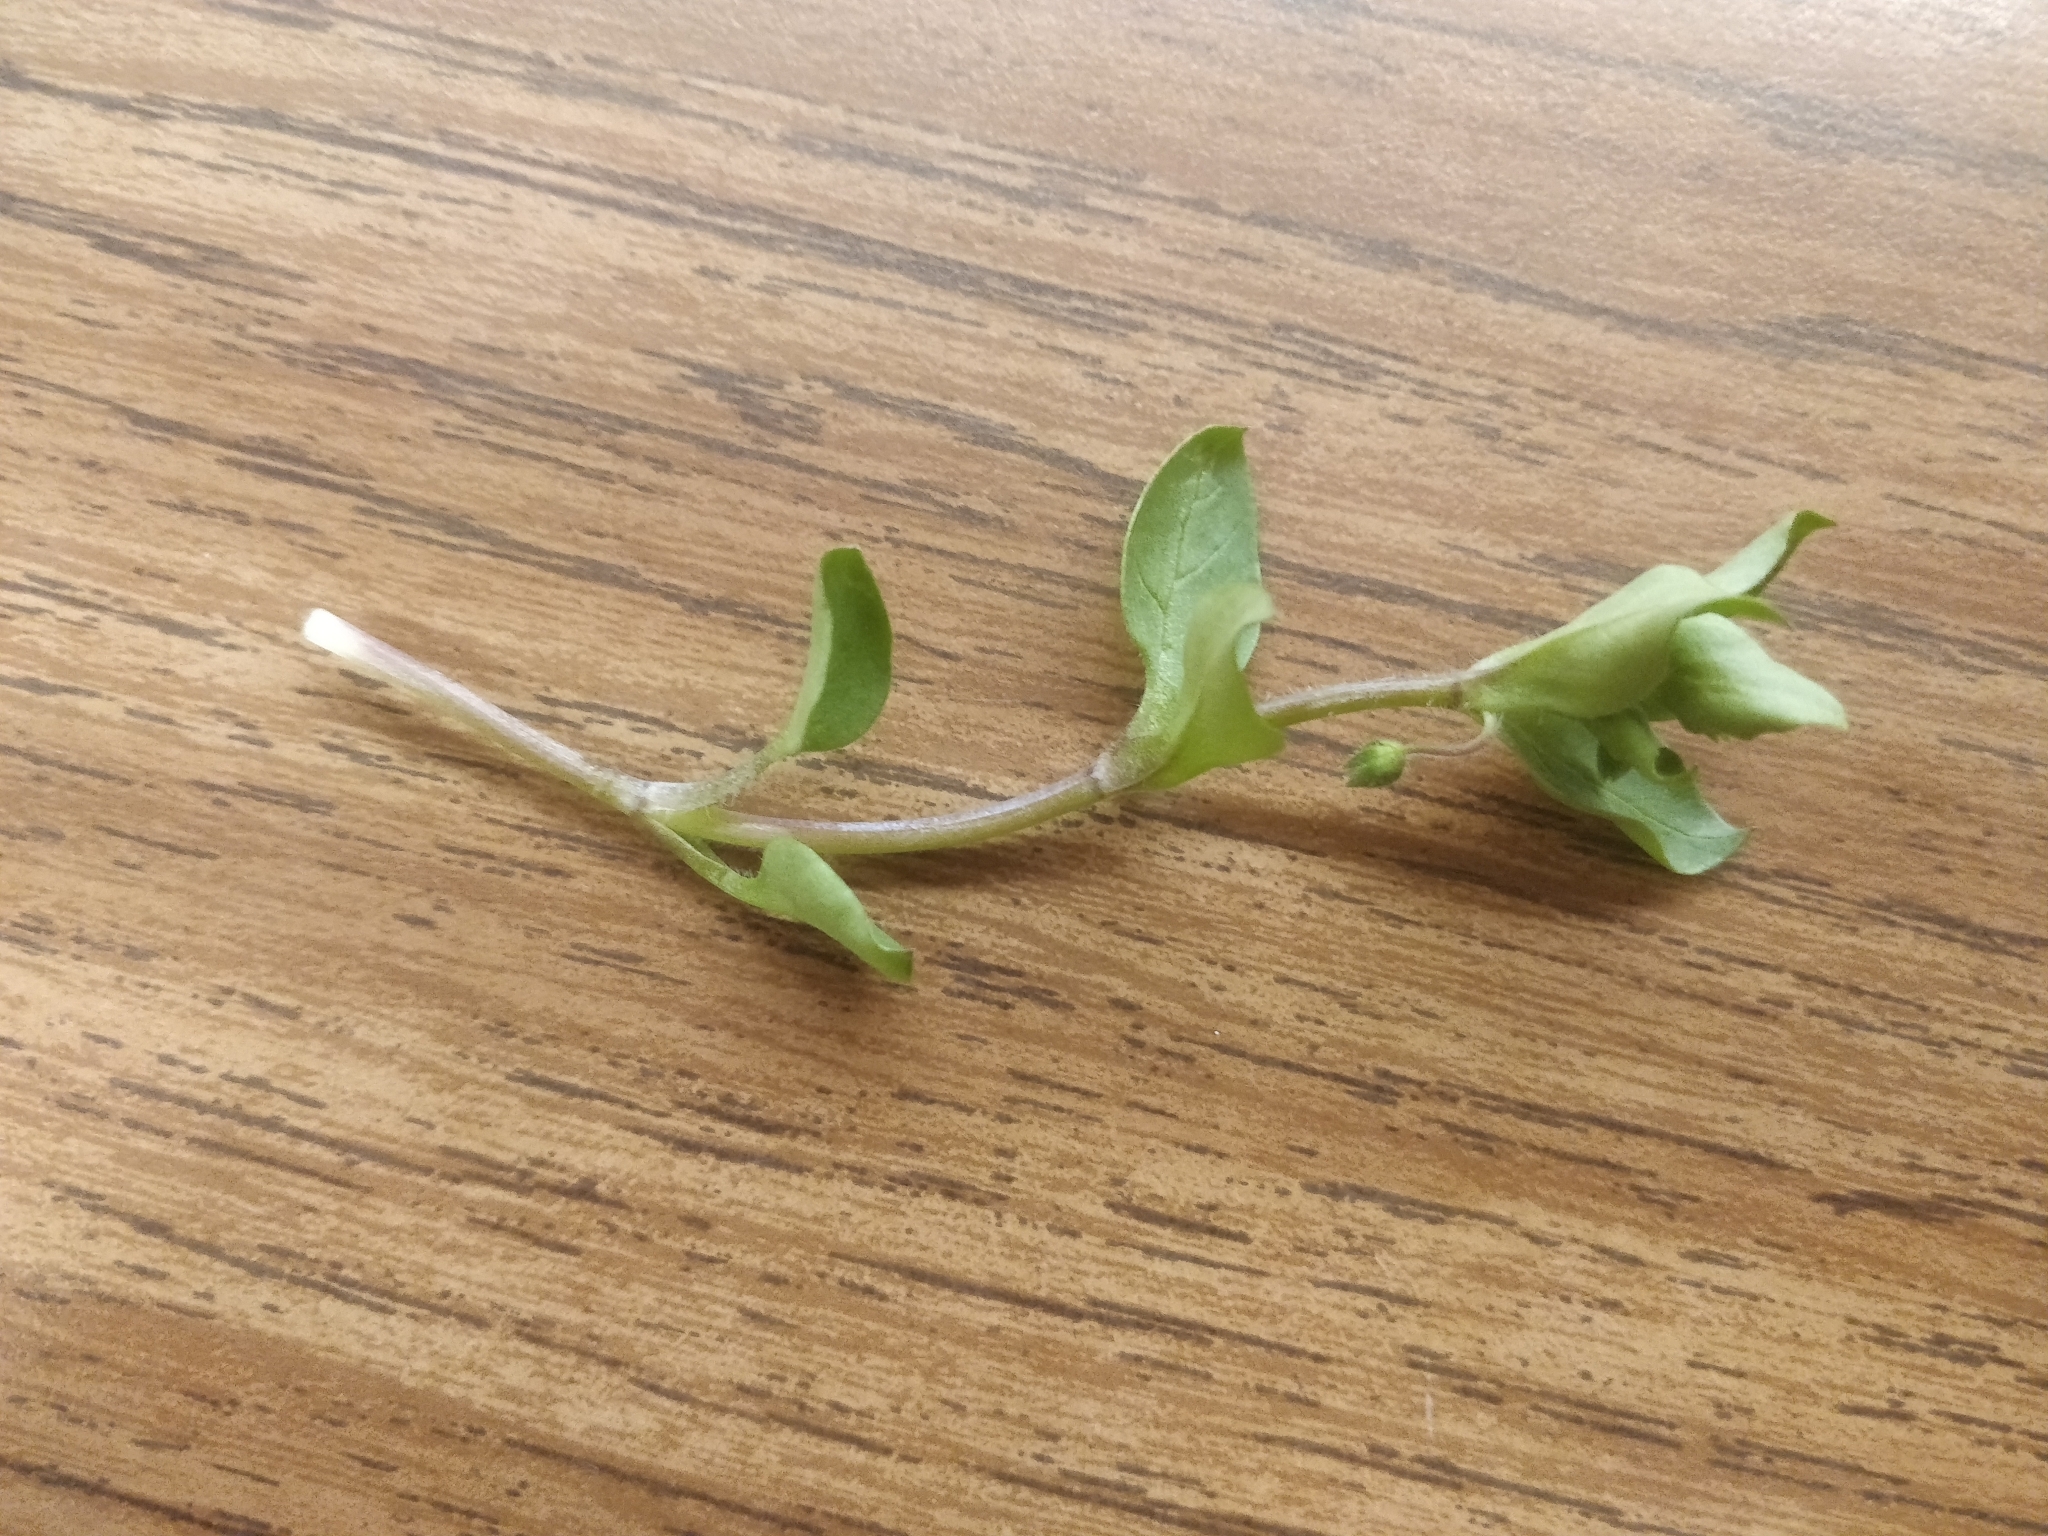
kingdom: Plantae
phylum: Tracheophyta
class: Magnoliopsida
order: Caryophyllales
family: Caryophyllaceae
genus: Stellaria
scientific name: Stellaria media
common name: Common chickweed
